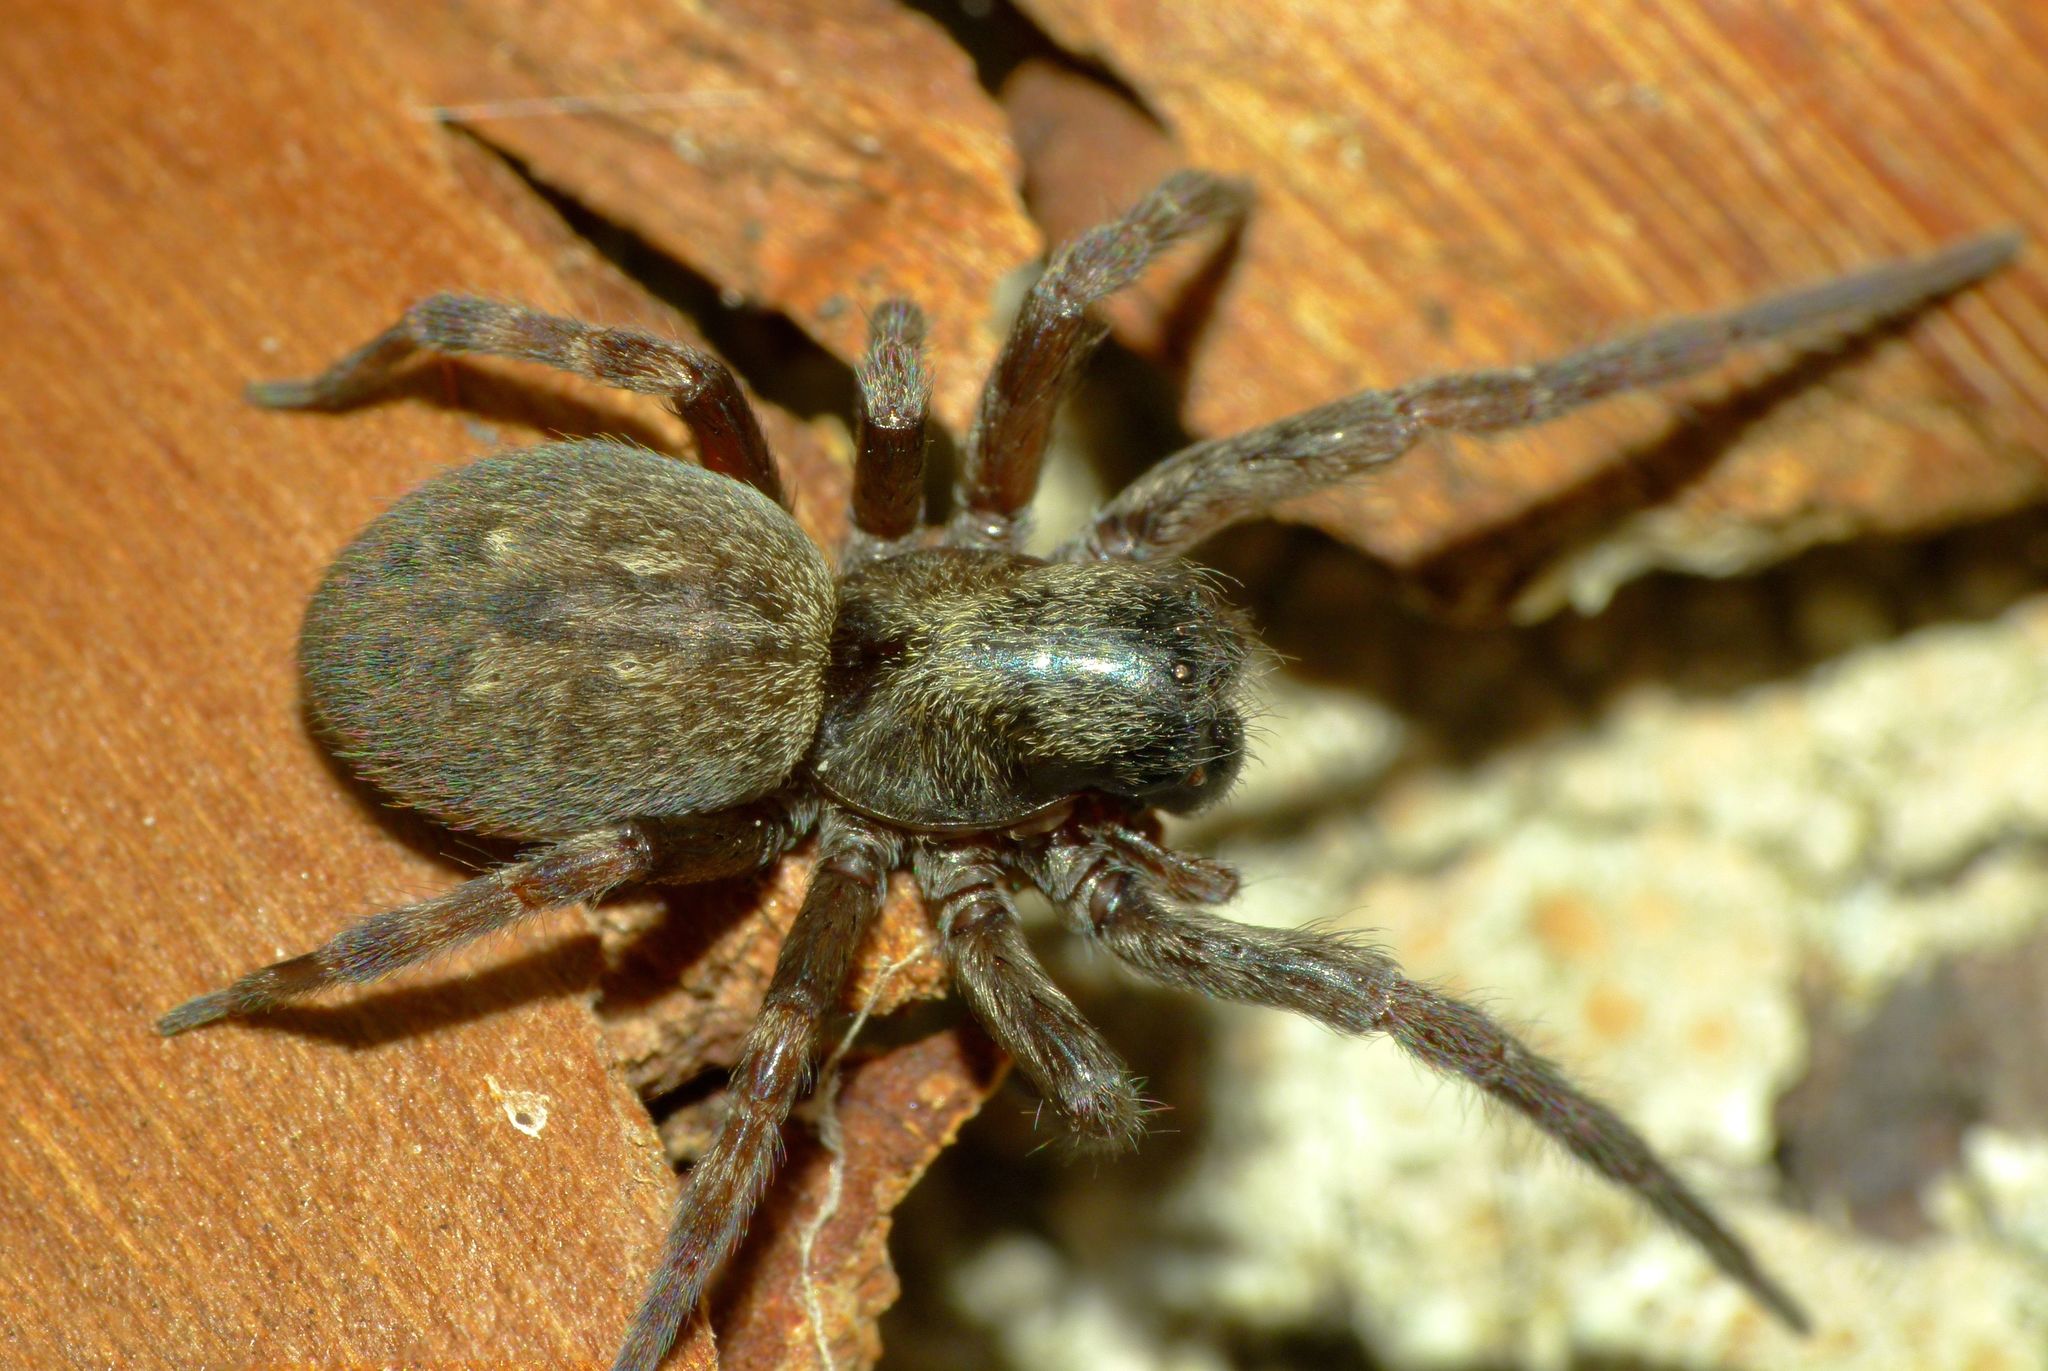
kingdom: Animalia
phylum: Arthropoda
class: Arachnida
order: Araneae
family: Desidae
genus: Badumna
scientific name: Badumna longinqua
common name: Gray house spider
